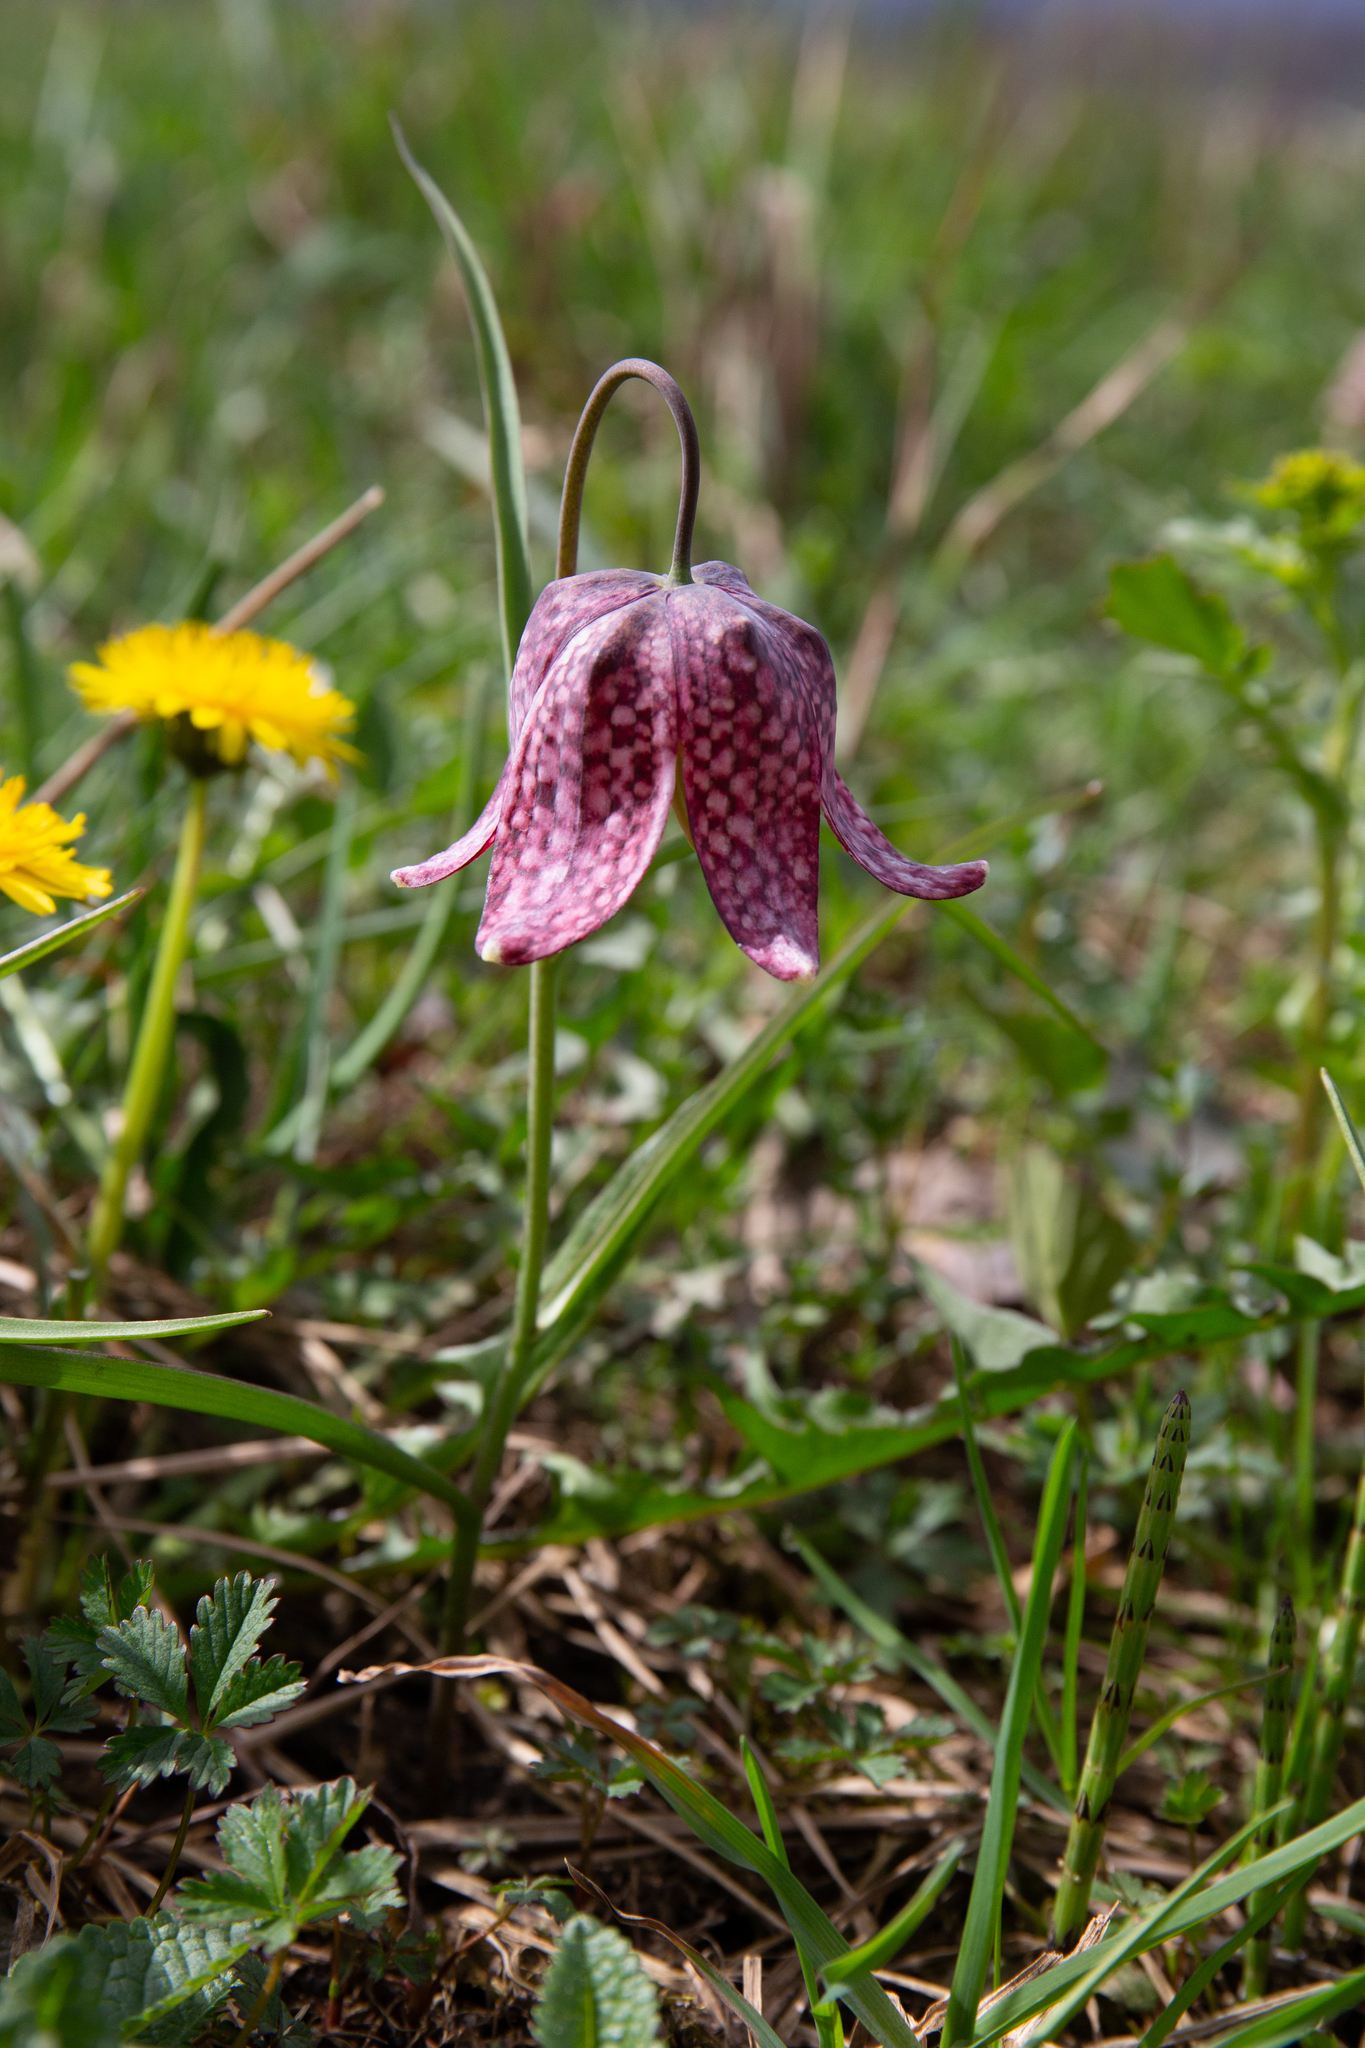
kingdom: Plantae
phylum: Tracheophyta
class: Liliopsida
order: Liliales
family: Liliaceae
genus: Fritillaria
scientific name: Fritillaria meleagris
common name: Fritillary
